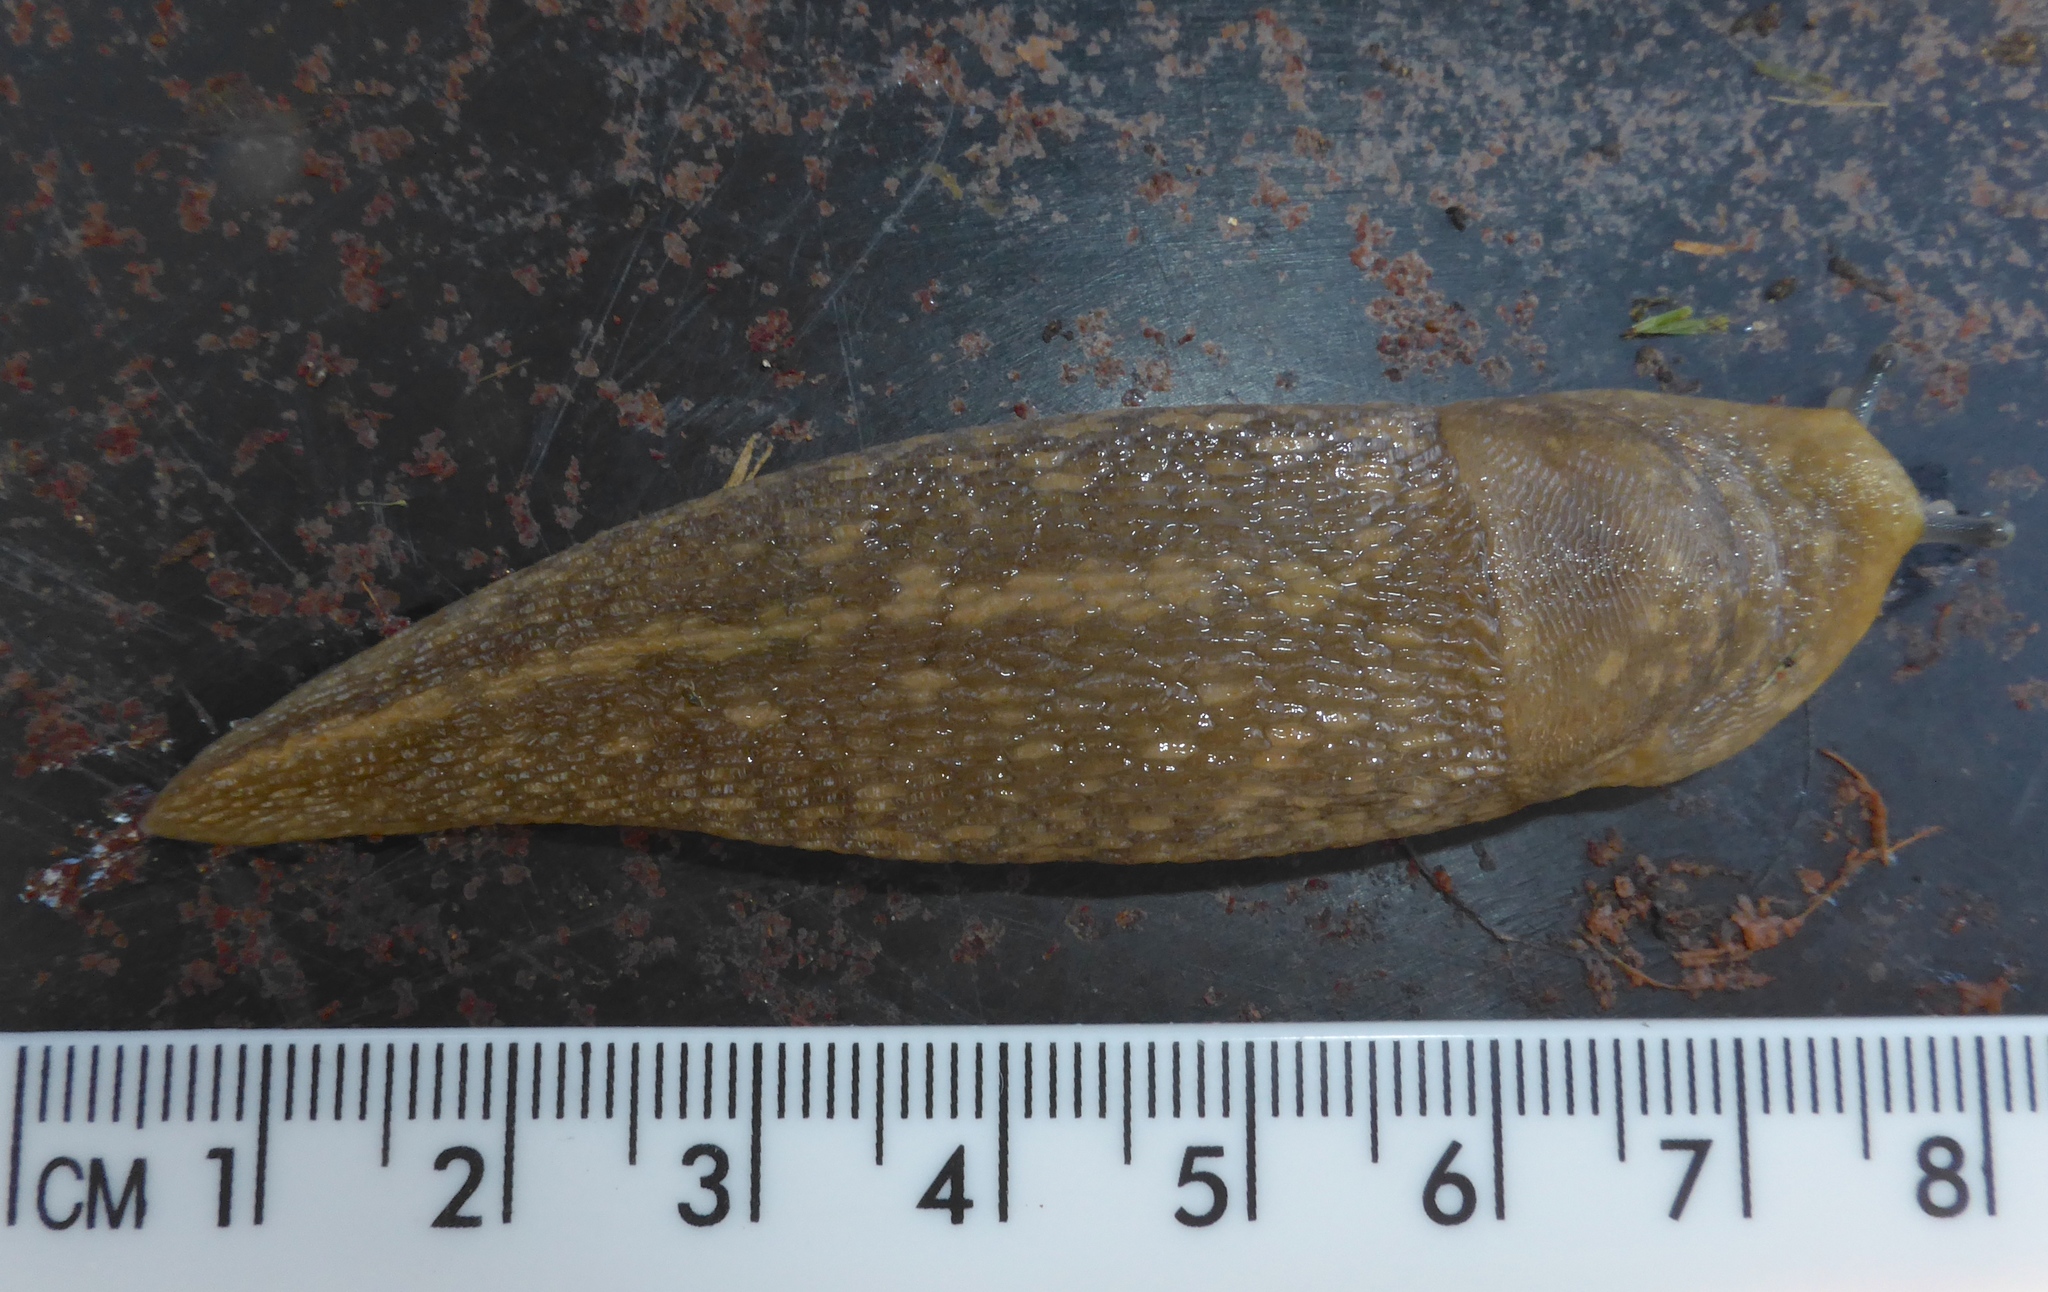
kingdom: Animalia
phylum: Mollusca
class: Gastropoda
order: Stylommatophora
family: Limacidae
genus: Limacus
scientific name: Limacus flavus
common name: Yellow gardenslug
